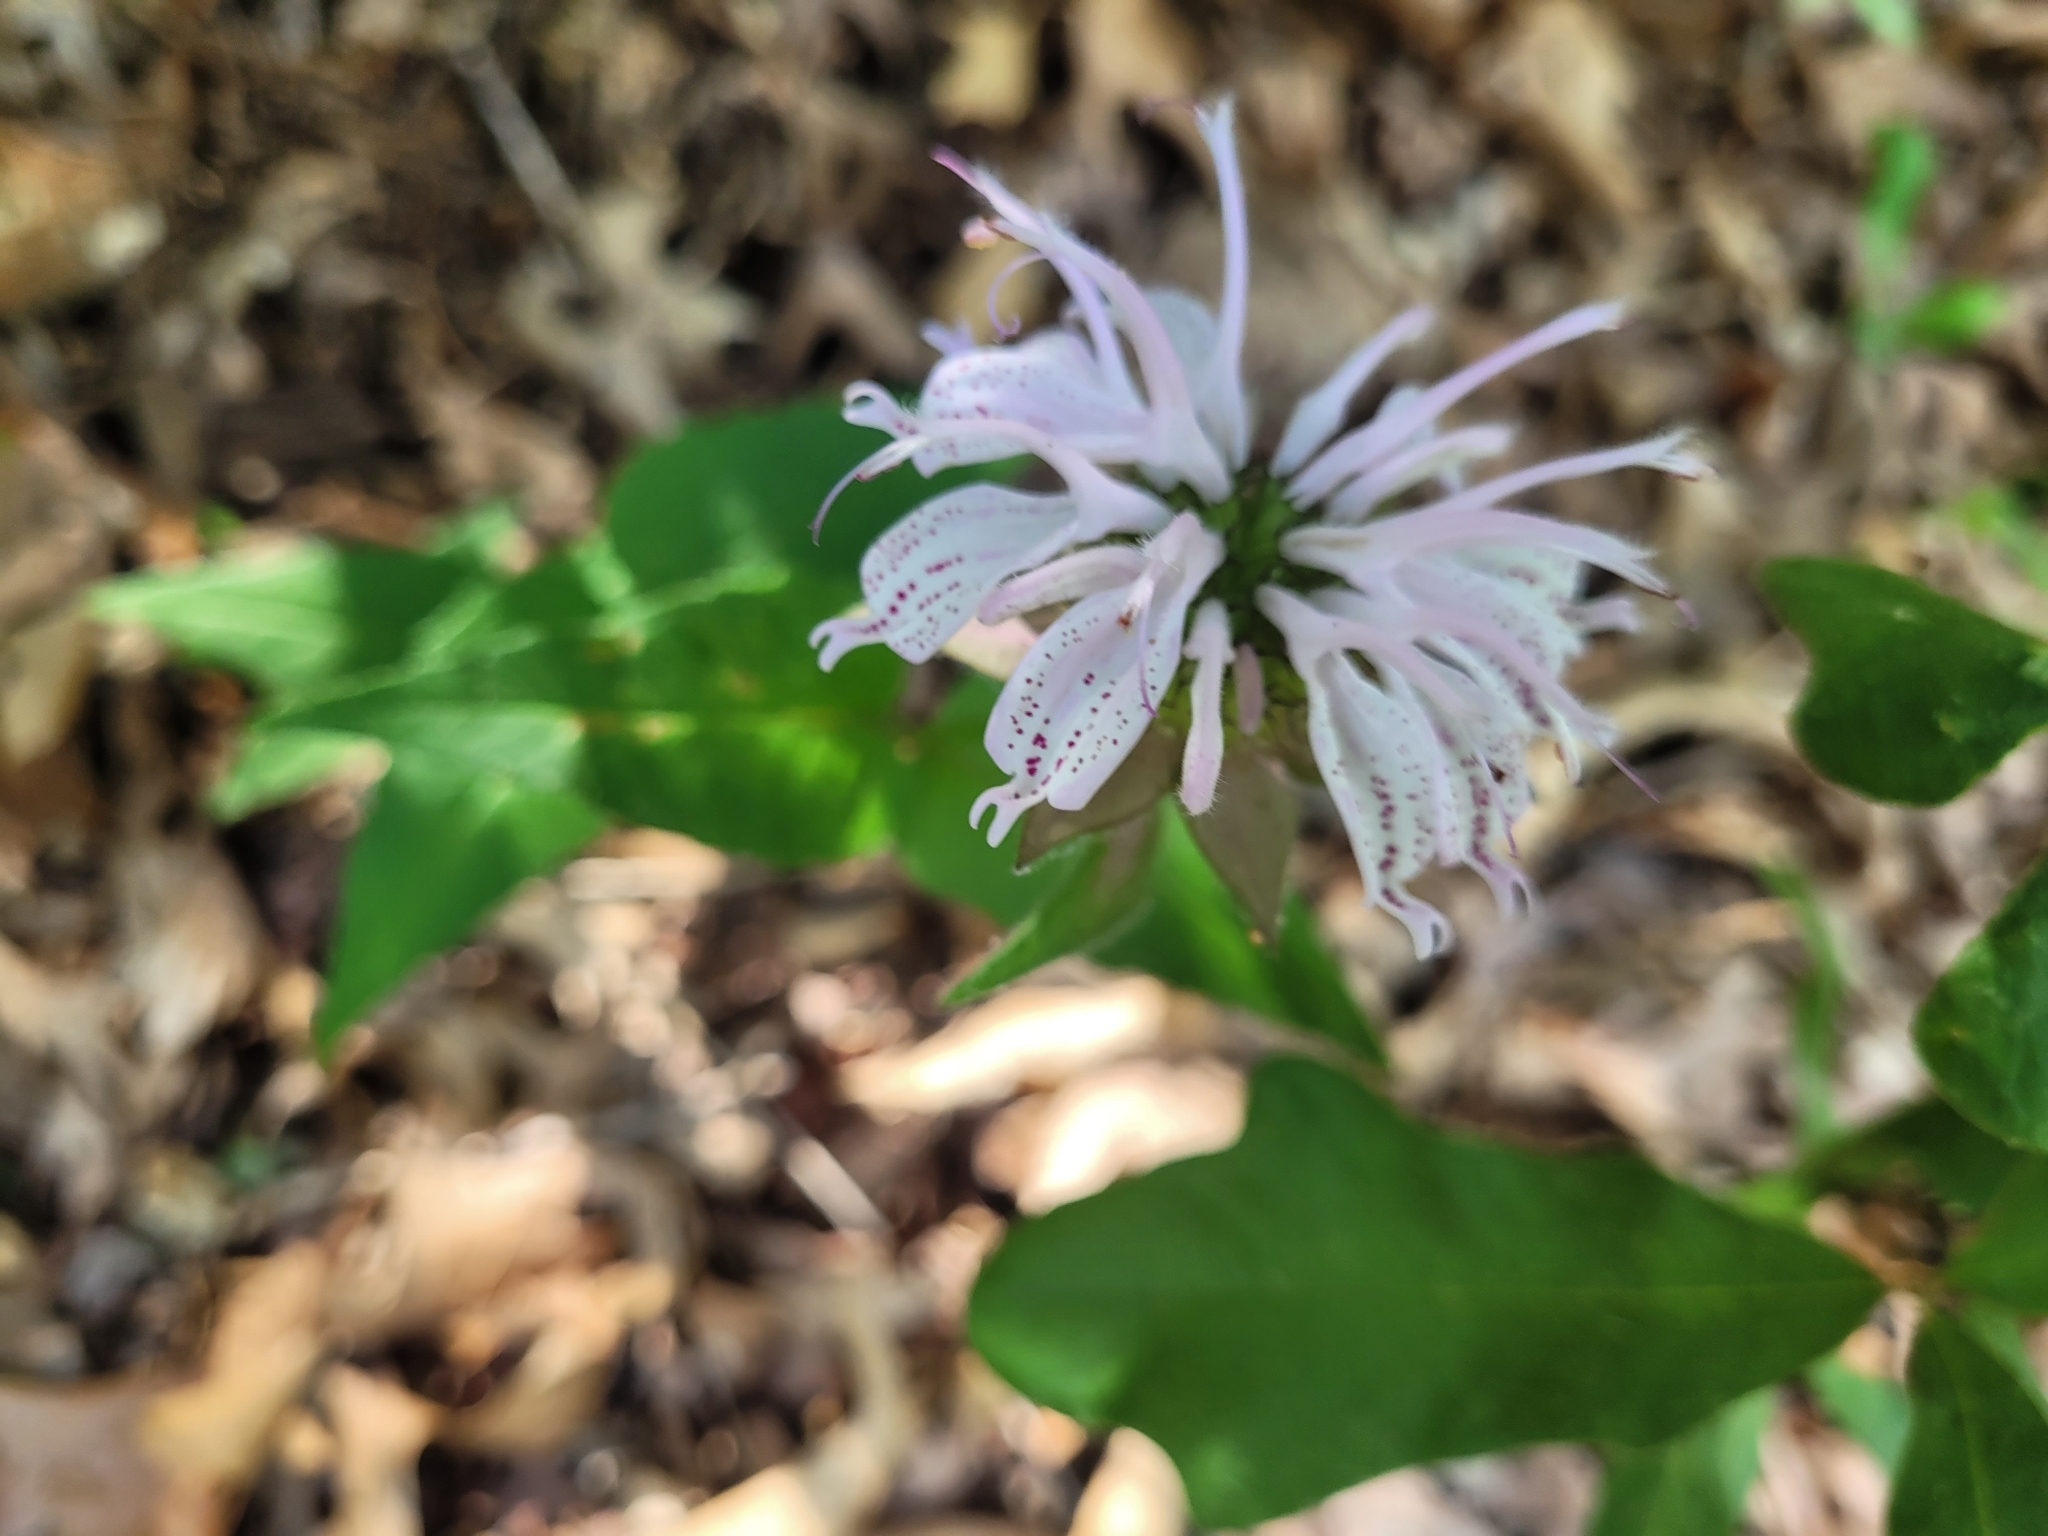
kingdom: Plantae
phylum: Tracheophyta
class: Magnoliopsida
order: Lamiales
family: Lamiaceae
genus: Monarda
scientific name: Monarda bradburiana
